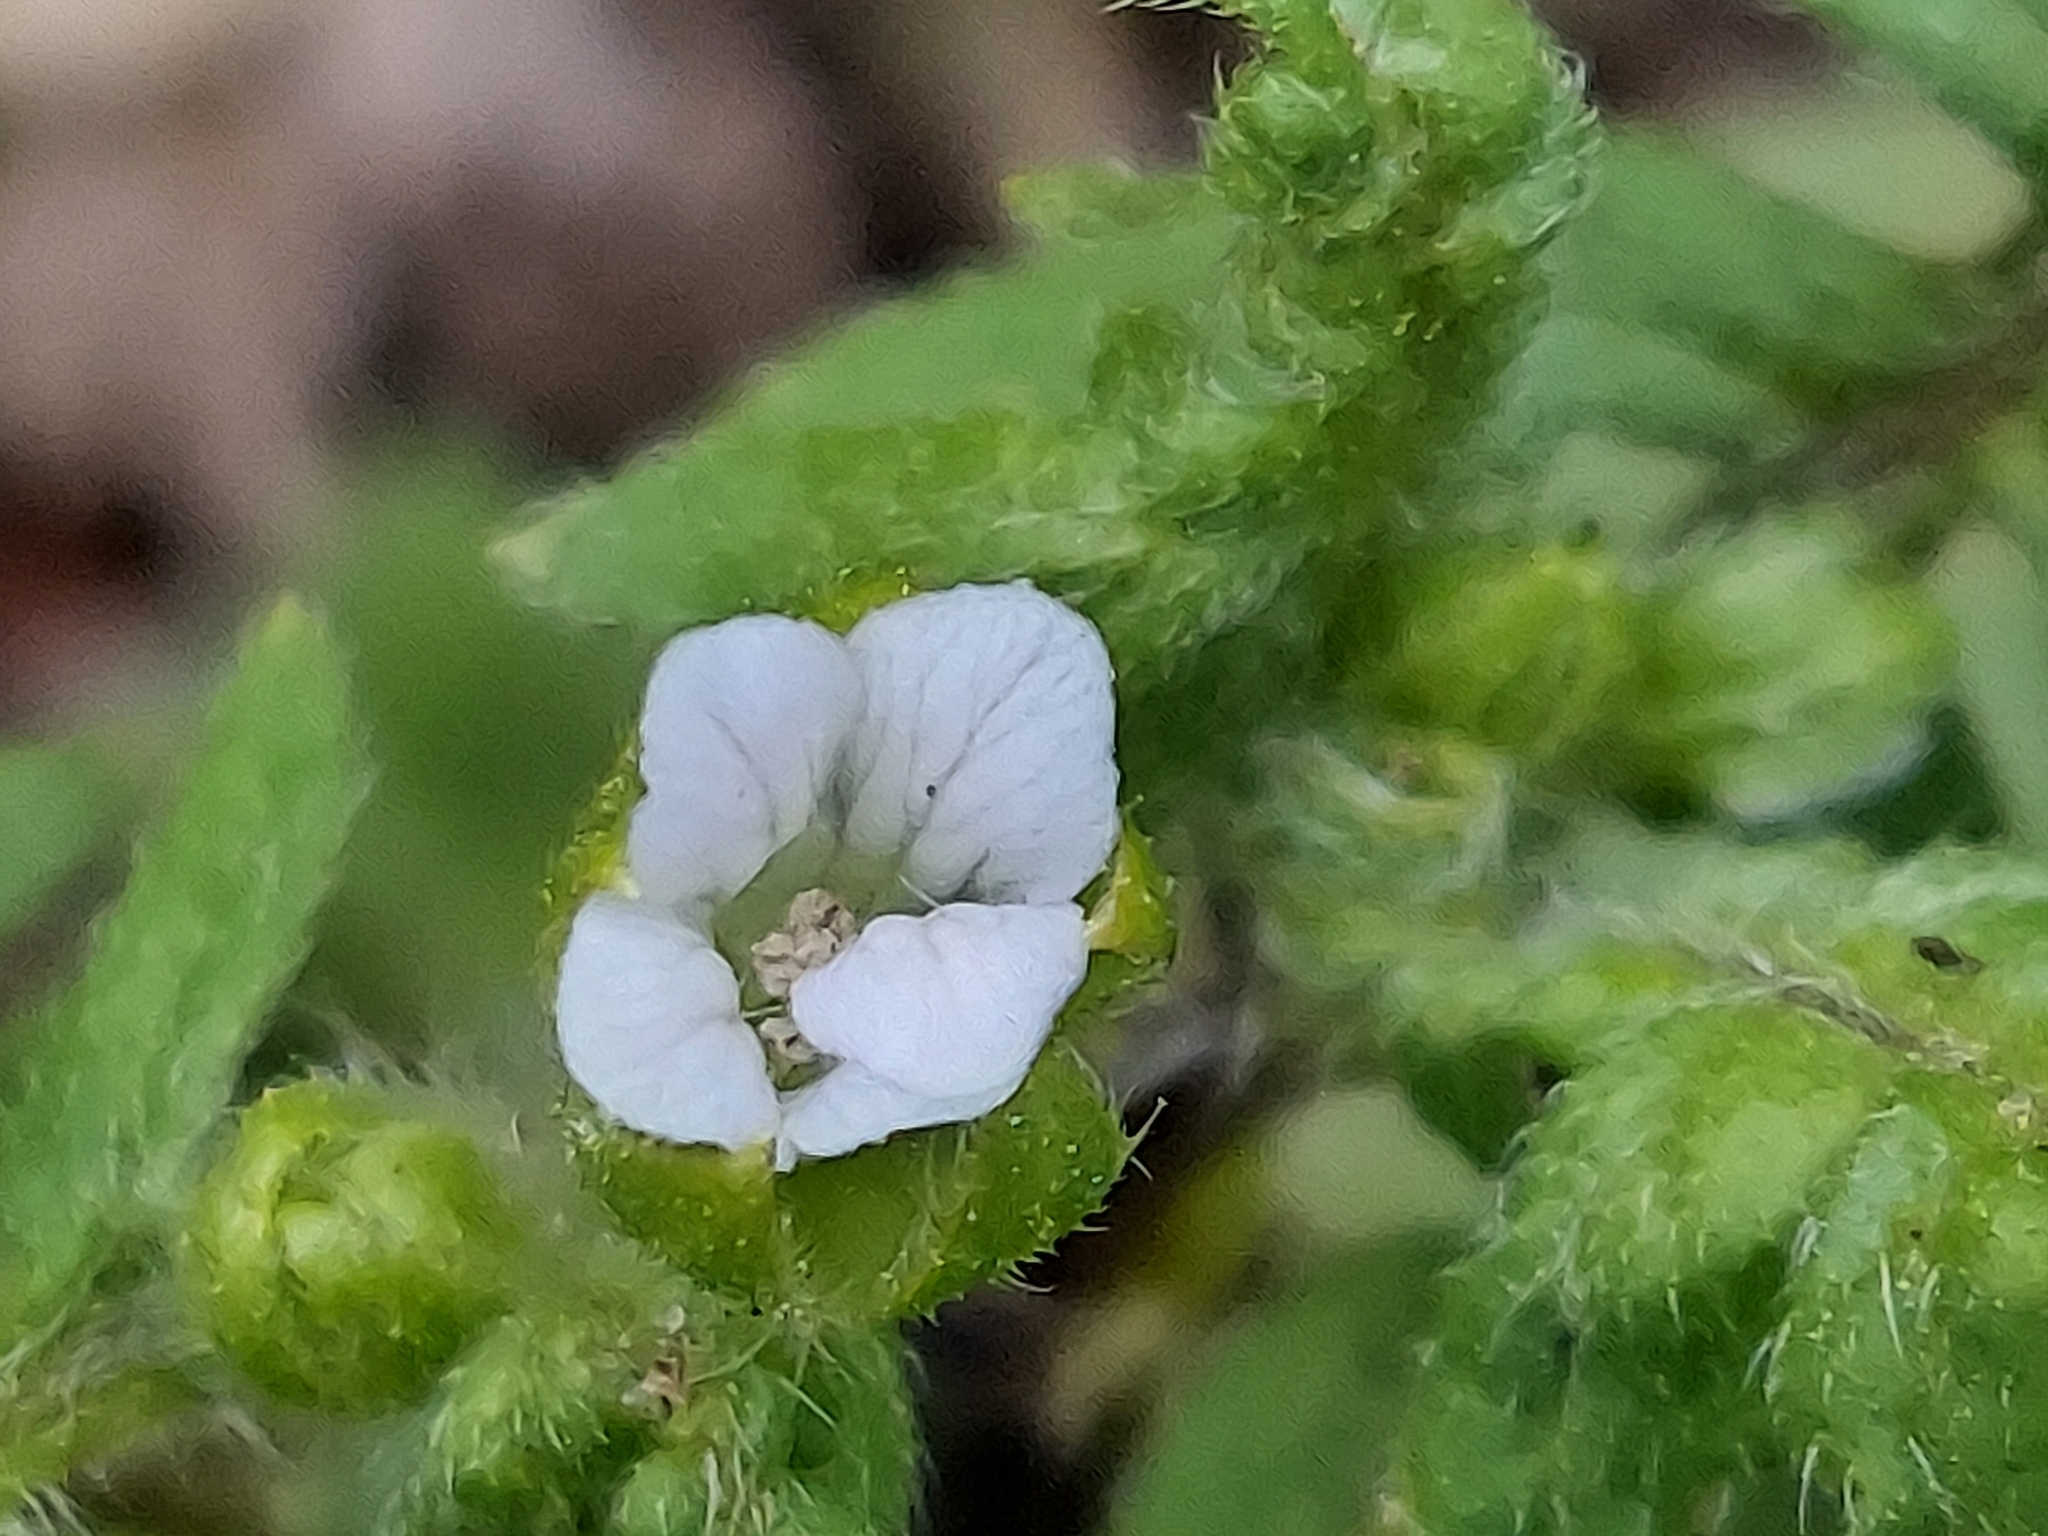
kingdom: Plantae
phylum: Tracheophyta
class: Magnoliopsida
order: Boraginales
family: Hydrophyllaceae
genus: Ellisia
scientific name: Ellisia nyctelea
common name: Aunt lucy
